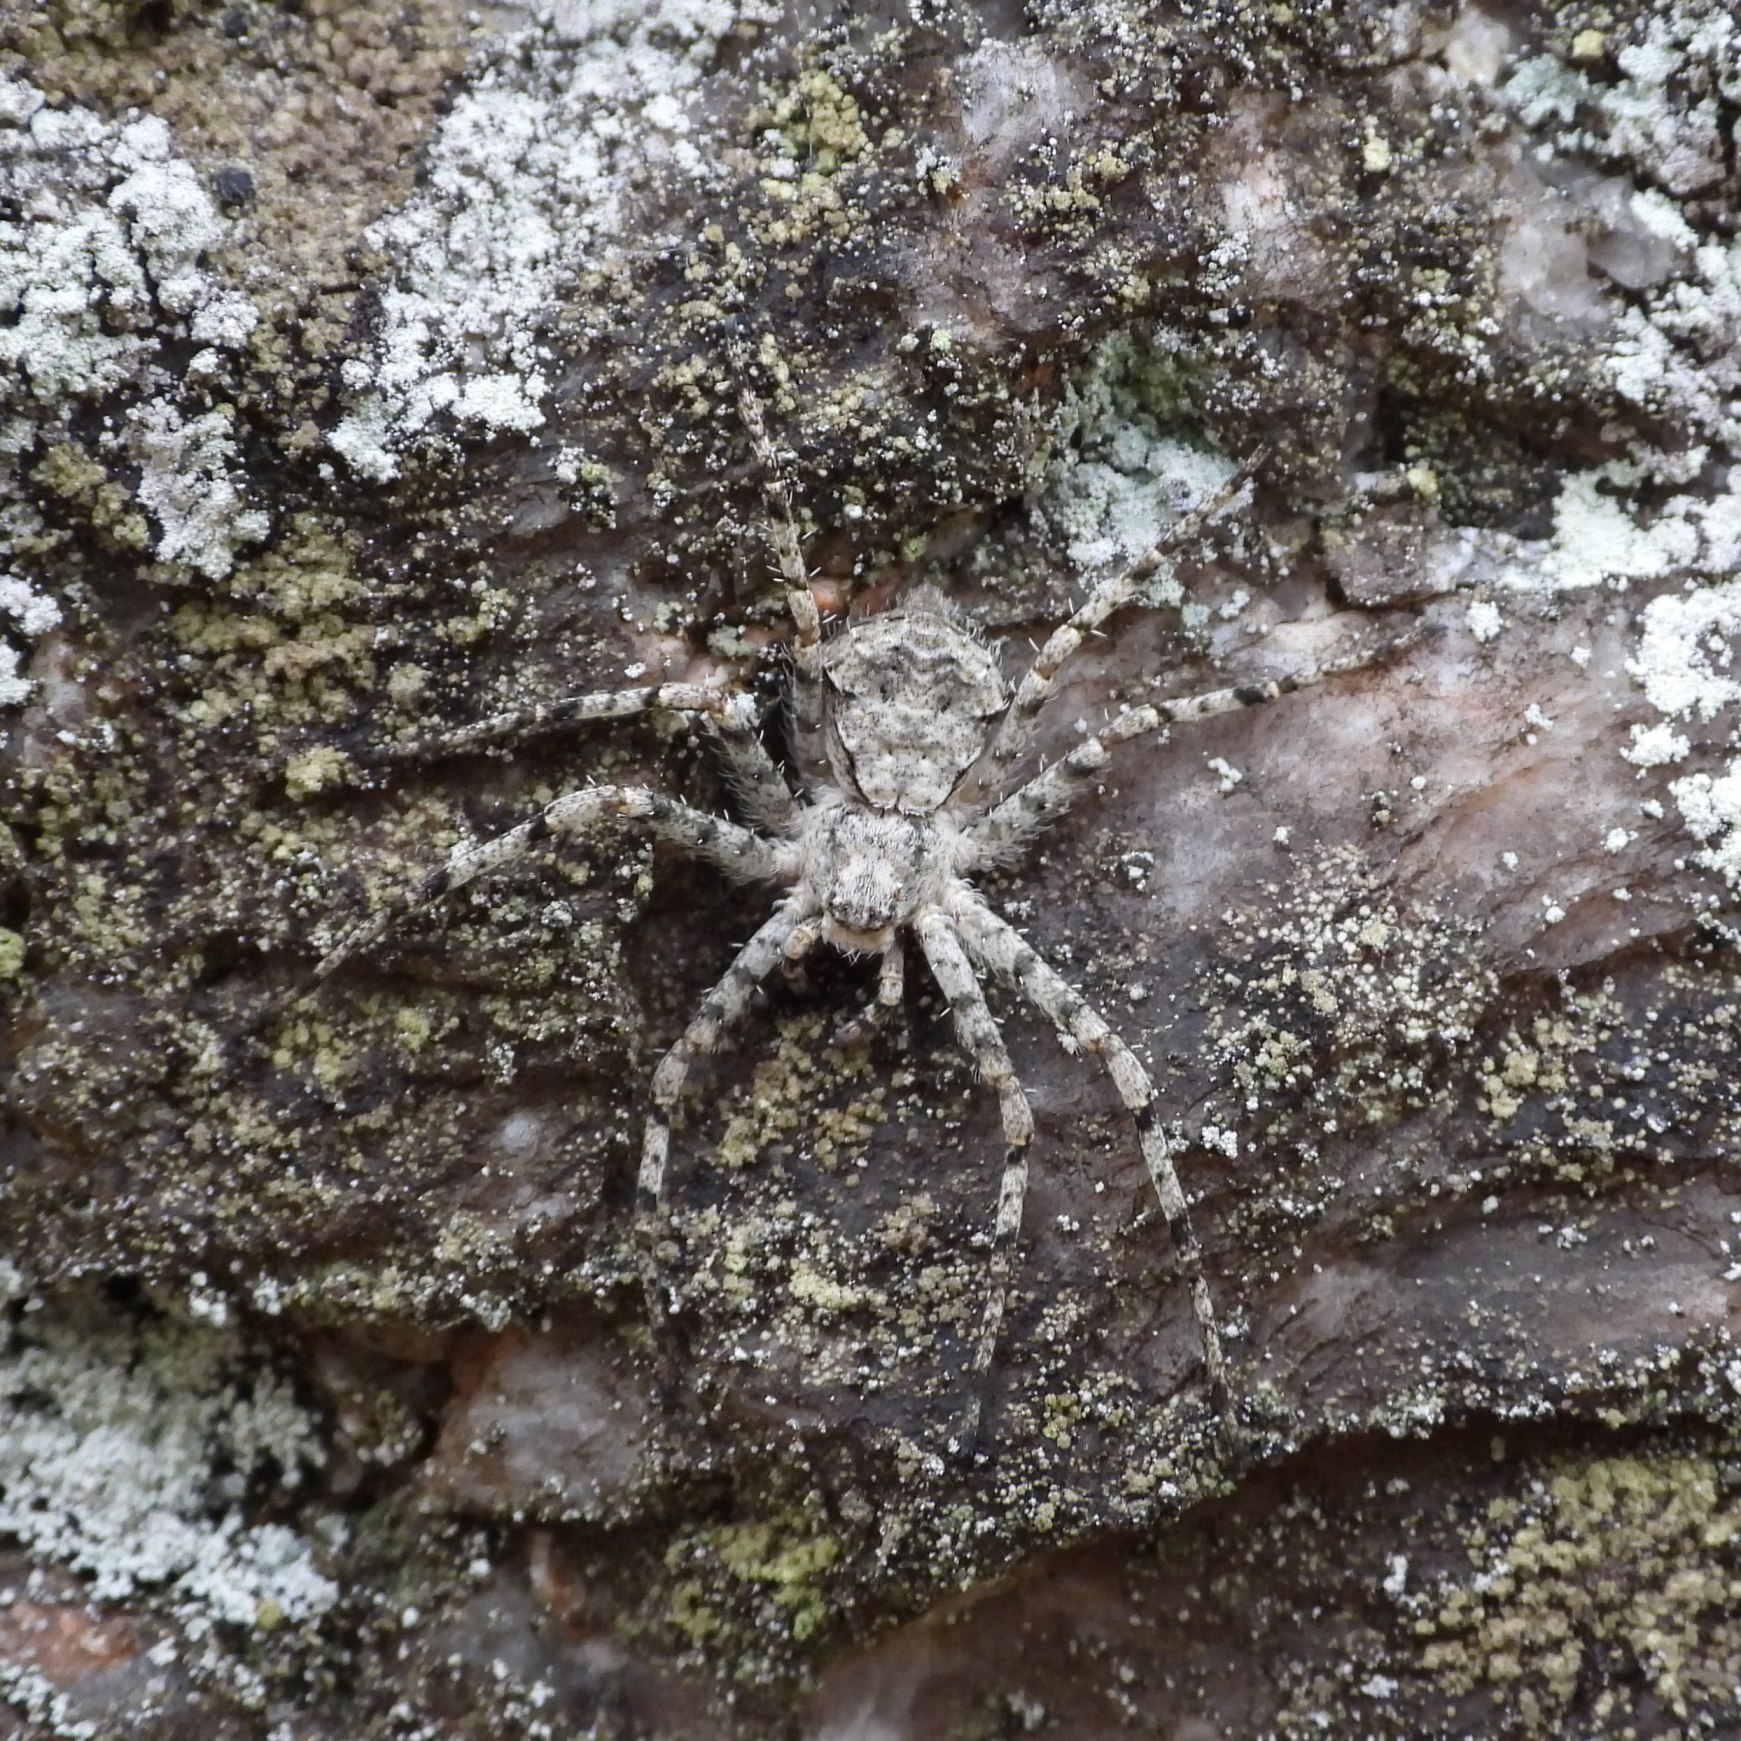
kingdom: Animalia
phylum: Arthropoda
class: Arachnida
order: Araneae
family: Philodromidae
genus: Philodromus
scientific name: Philodromus margaritatus
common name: Lichen running-spider
